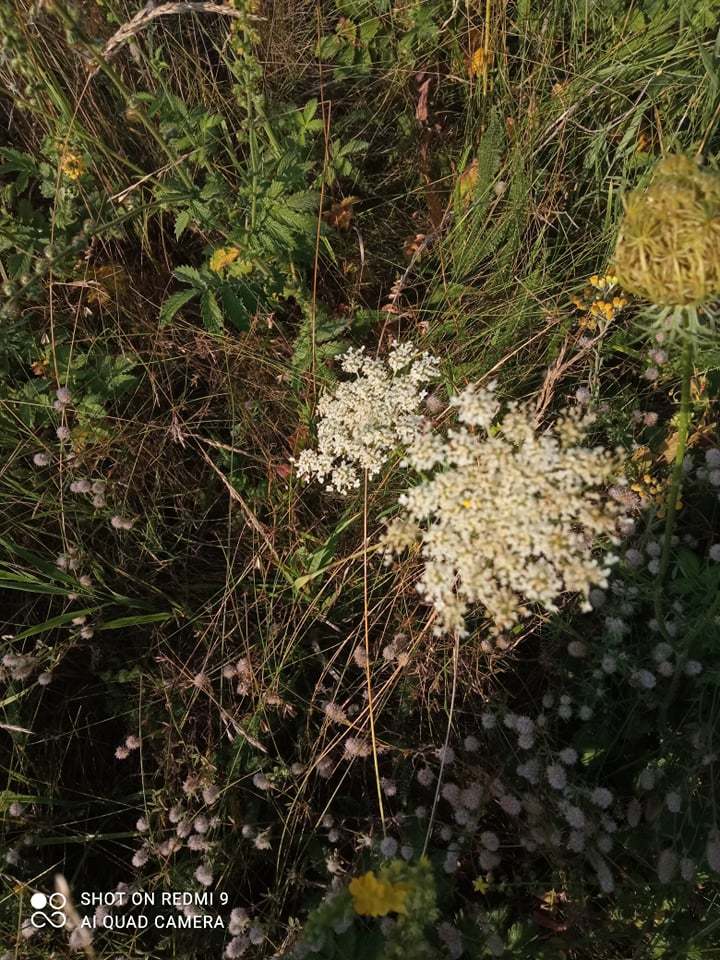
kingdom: Plantae
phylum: Tracheophyta
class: Magnoliopsida
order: Apiales
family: Apiaceae
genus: Daucus
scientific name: Daucus carota
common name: Wild carrot
